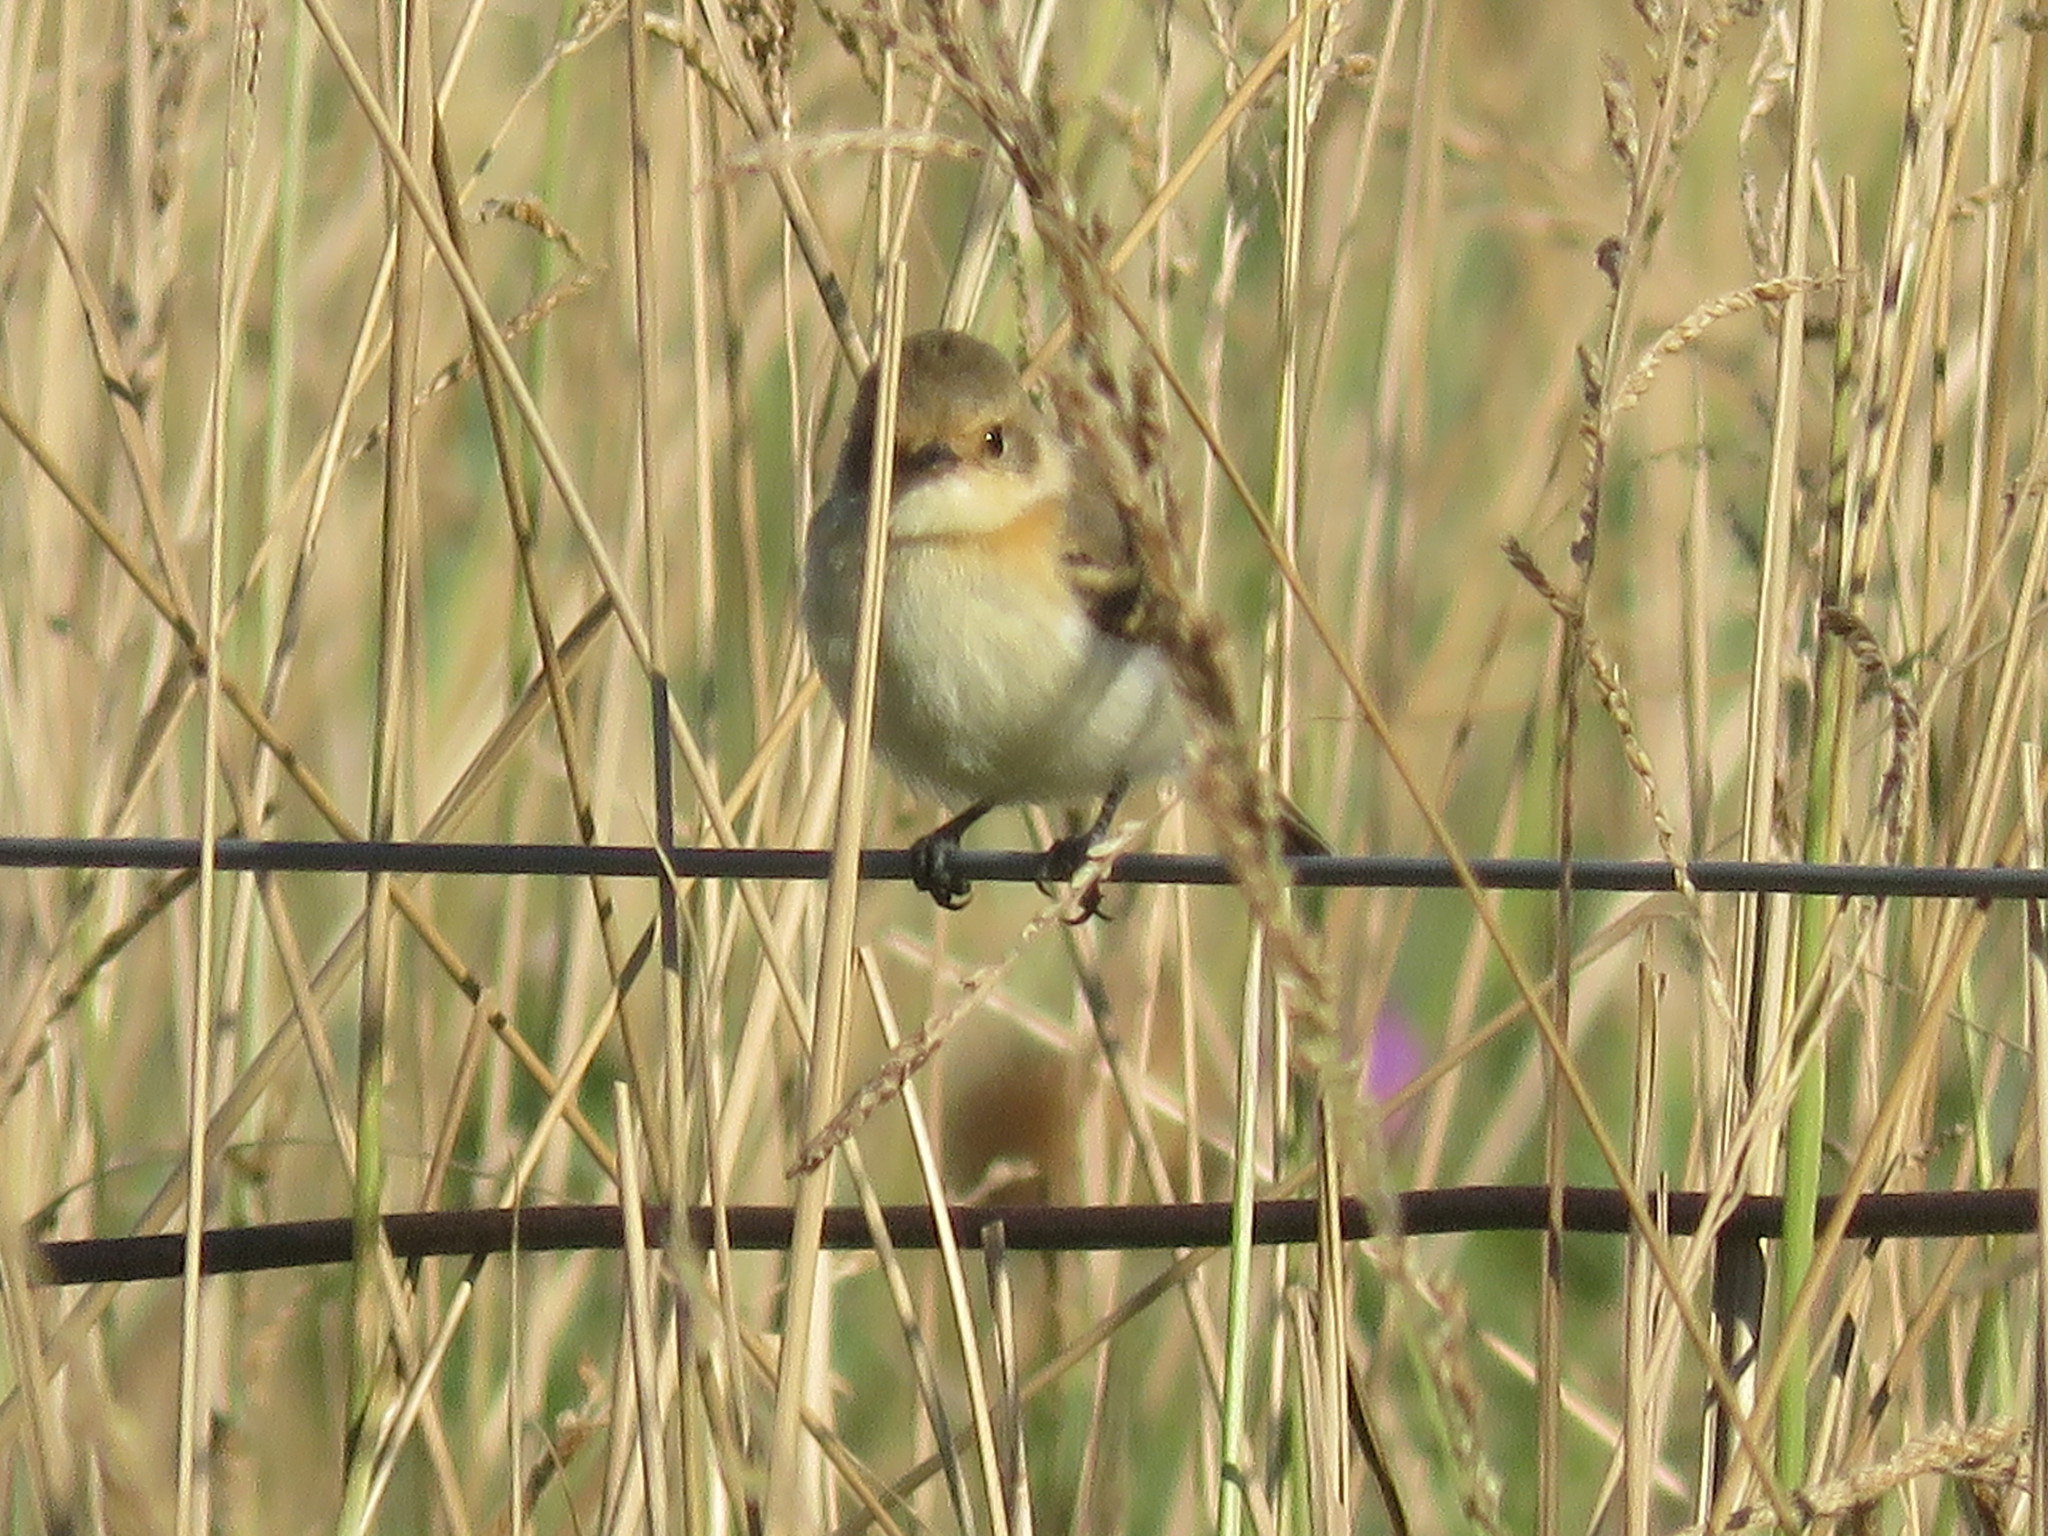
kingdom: Animalia
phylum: Chordata
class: Aves
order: Passeriformes
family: Tyrannidae
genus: Polystictus
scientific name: Polystictus pectoralis
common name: Bearded tachuri
